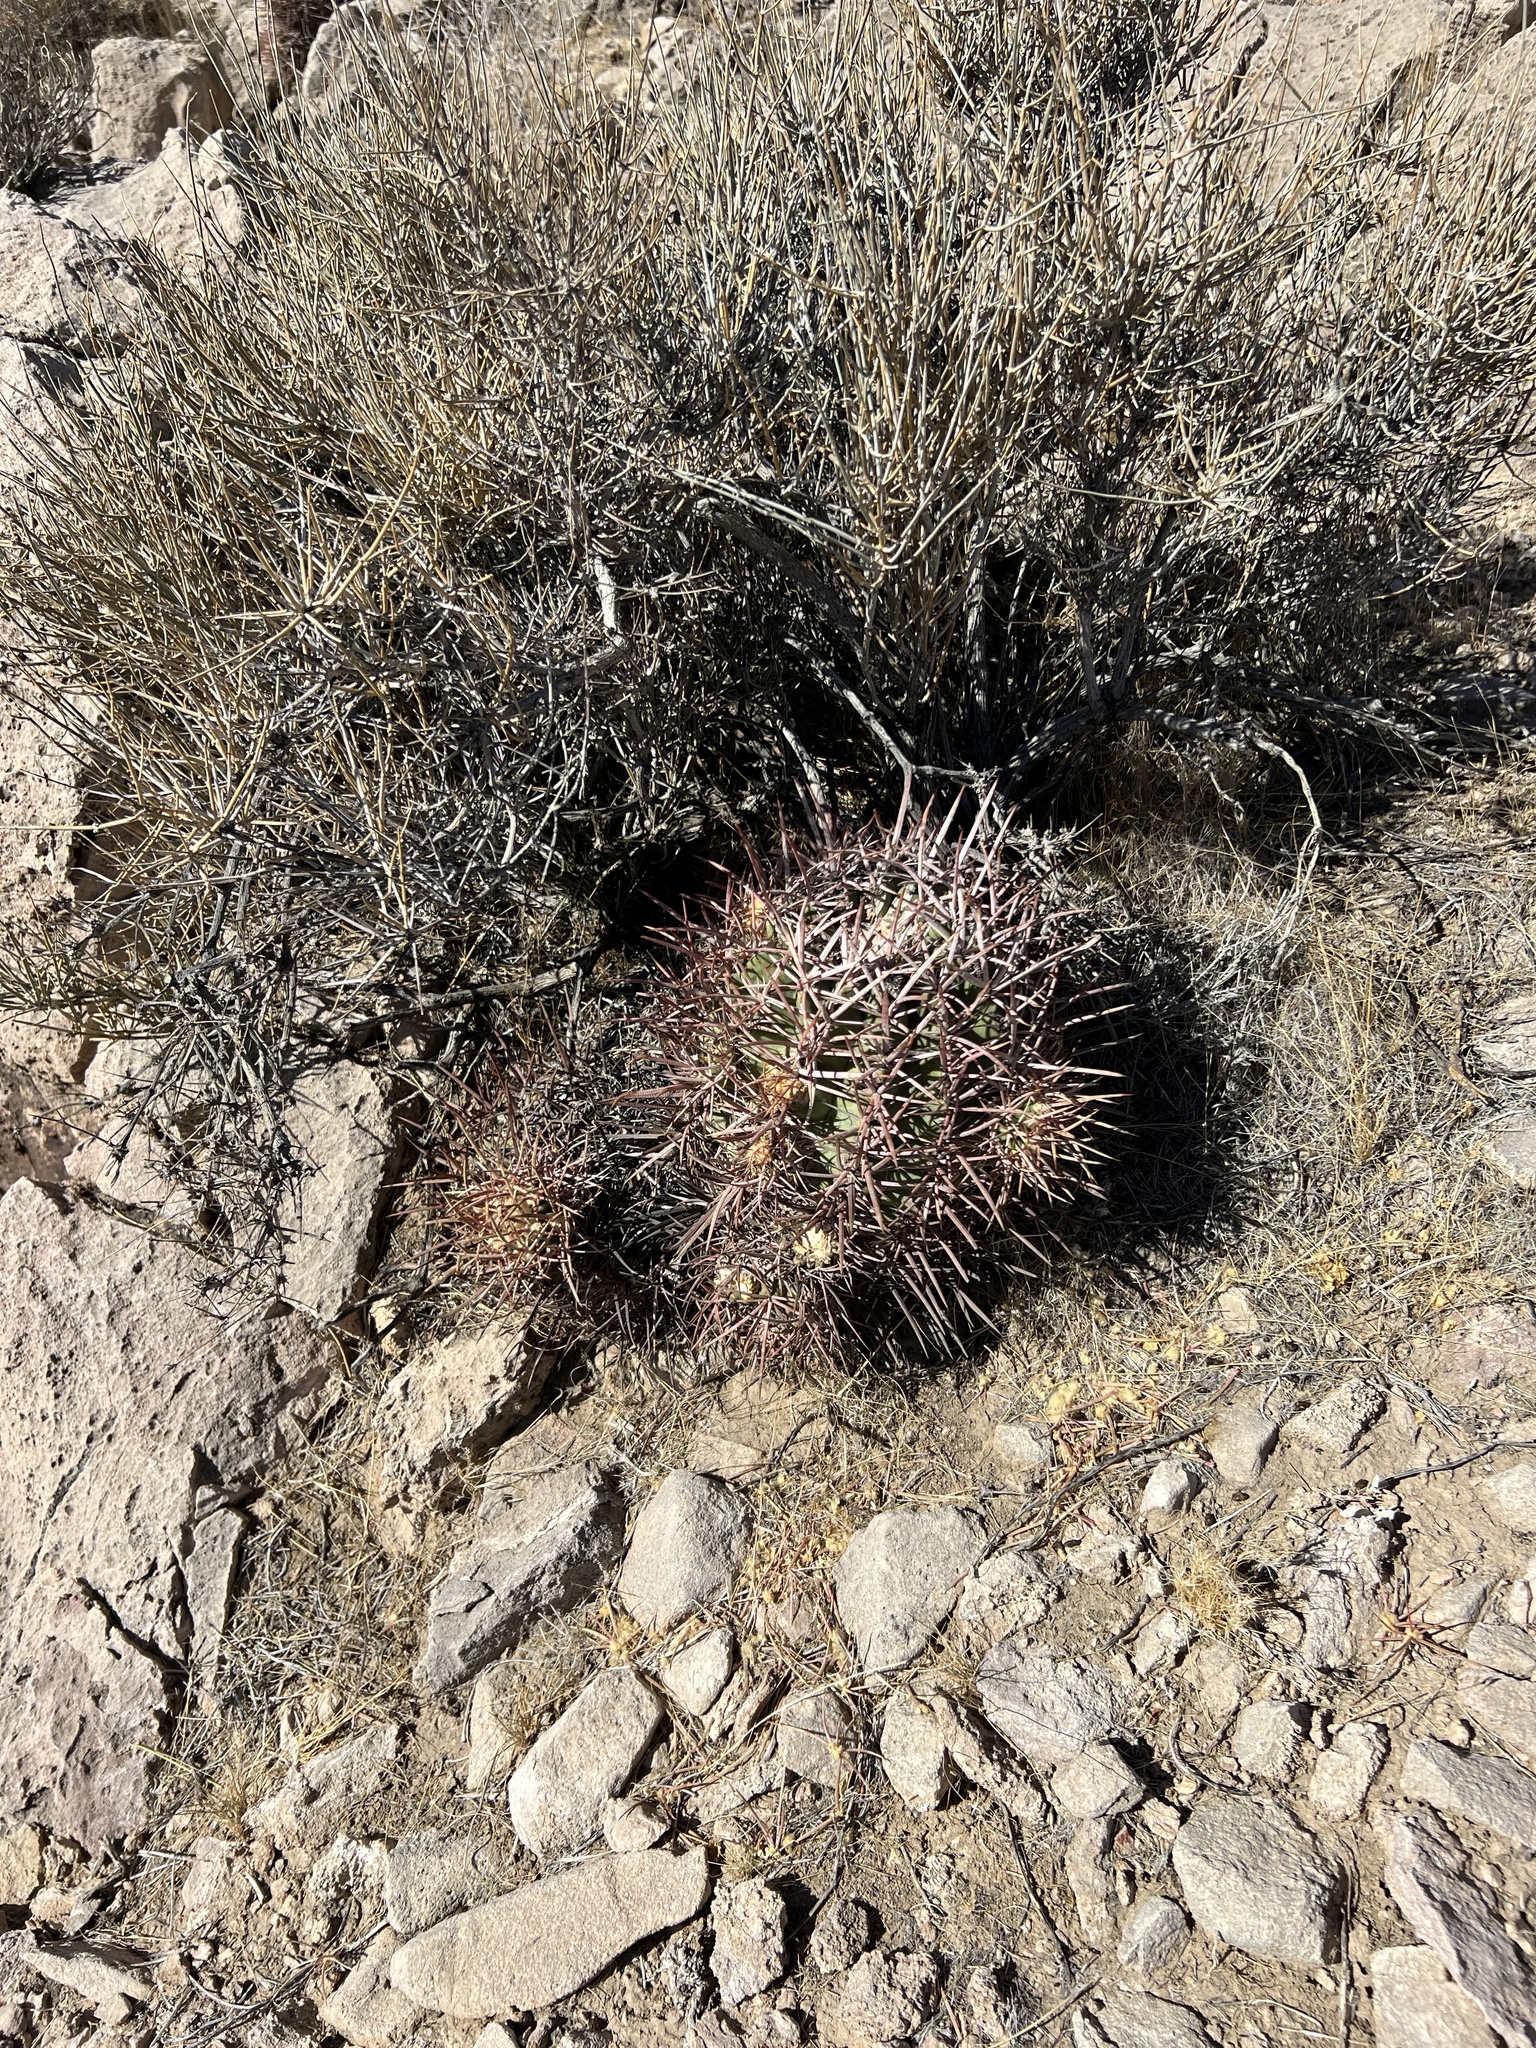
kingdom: Plantae
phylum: Tracheophyta
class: Magnoliopsida
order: Caryophyllales
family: Cactaceae
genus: Echinocactus
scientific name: Echinocactus polycephalus
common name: Cottontop cactus
